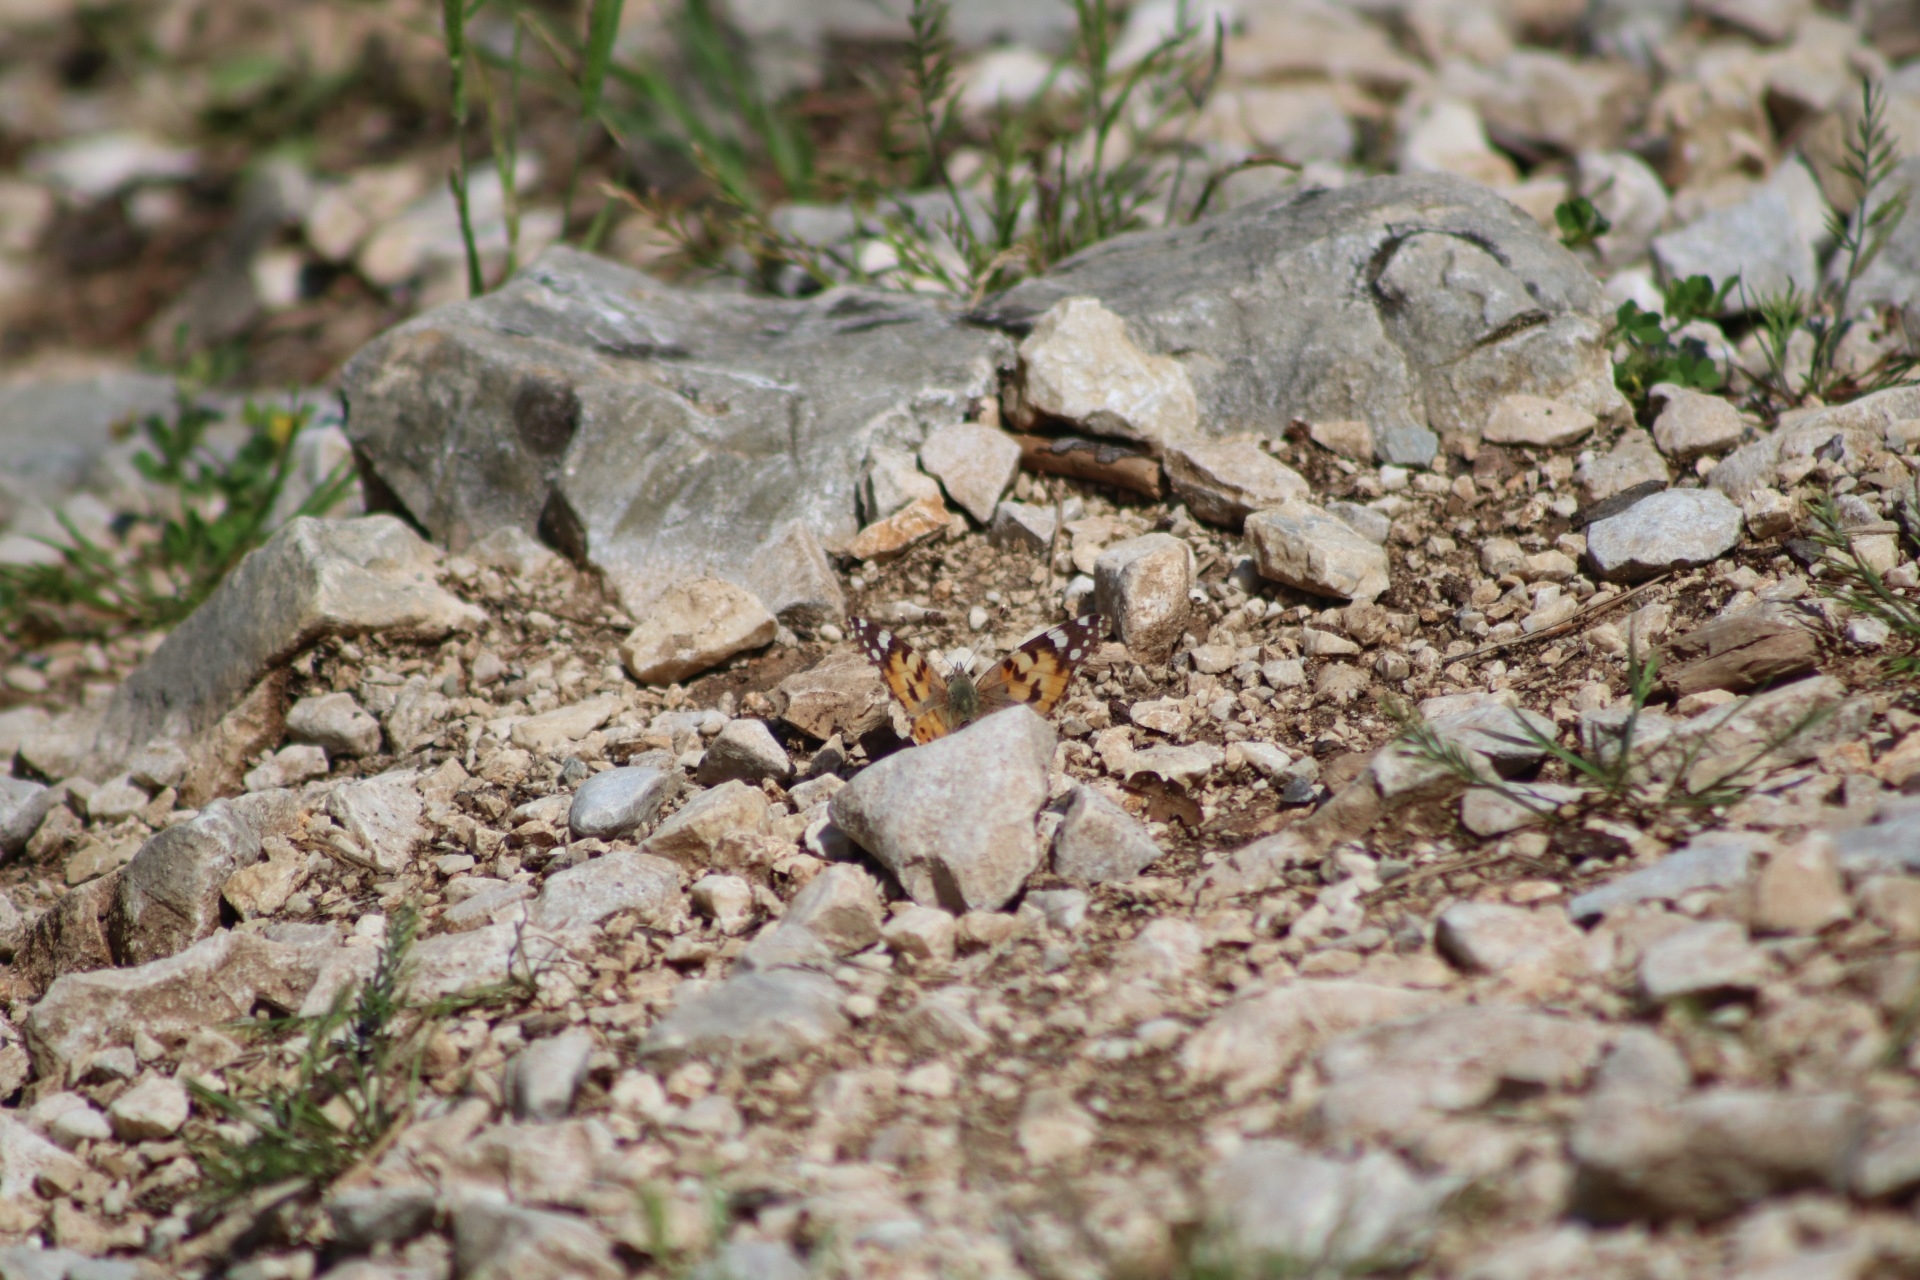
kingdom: Animalia
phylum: Arthropoda
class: Insecta
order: Lepidoptera
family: Nymphalidae
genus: Vanessa
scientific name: Vanessa cardui
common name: Painted lady
